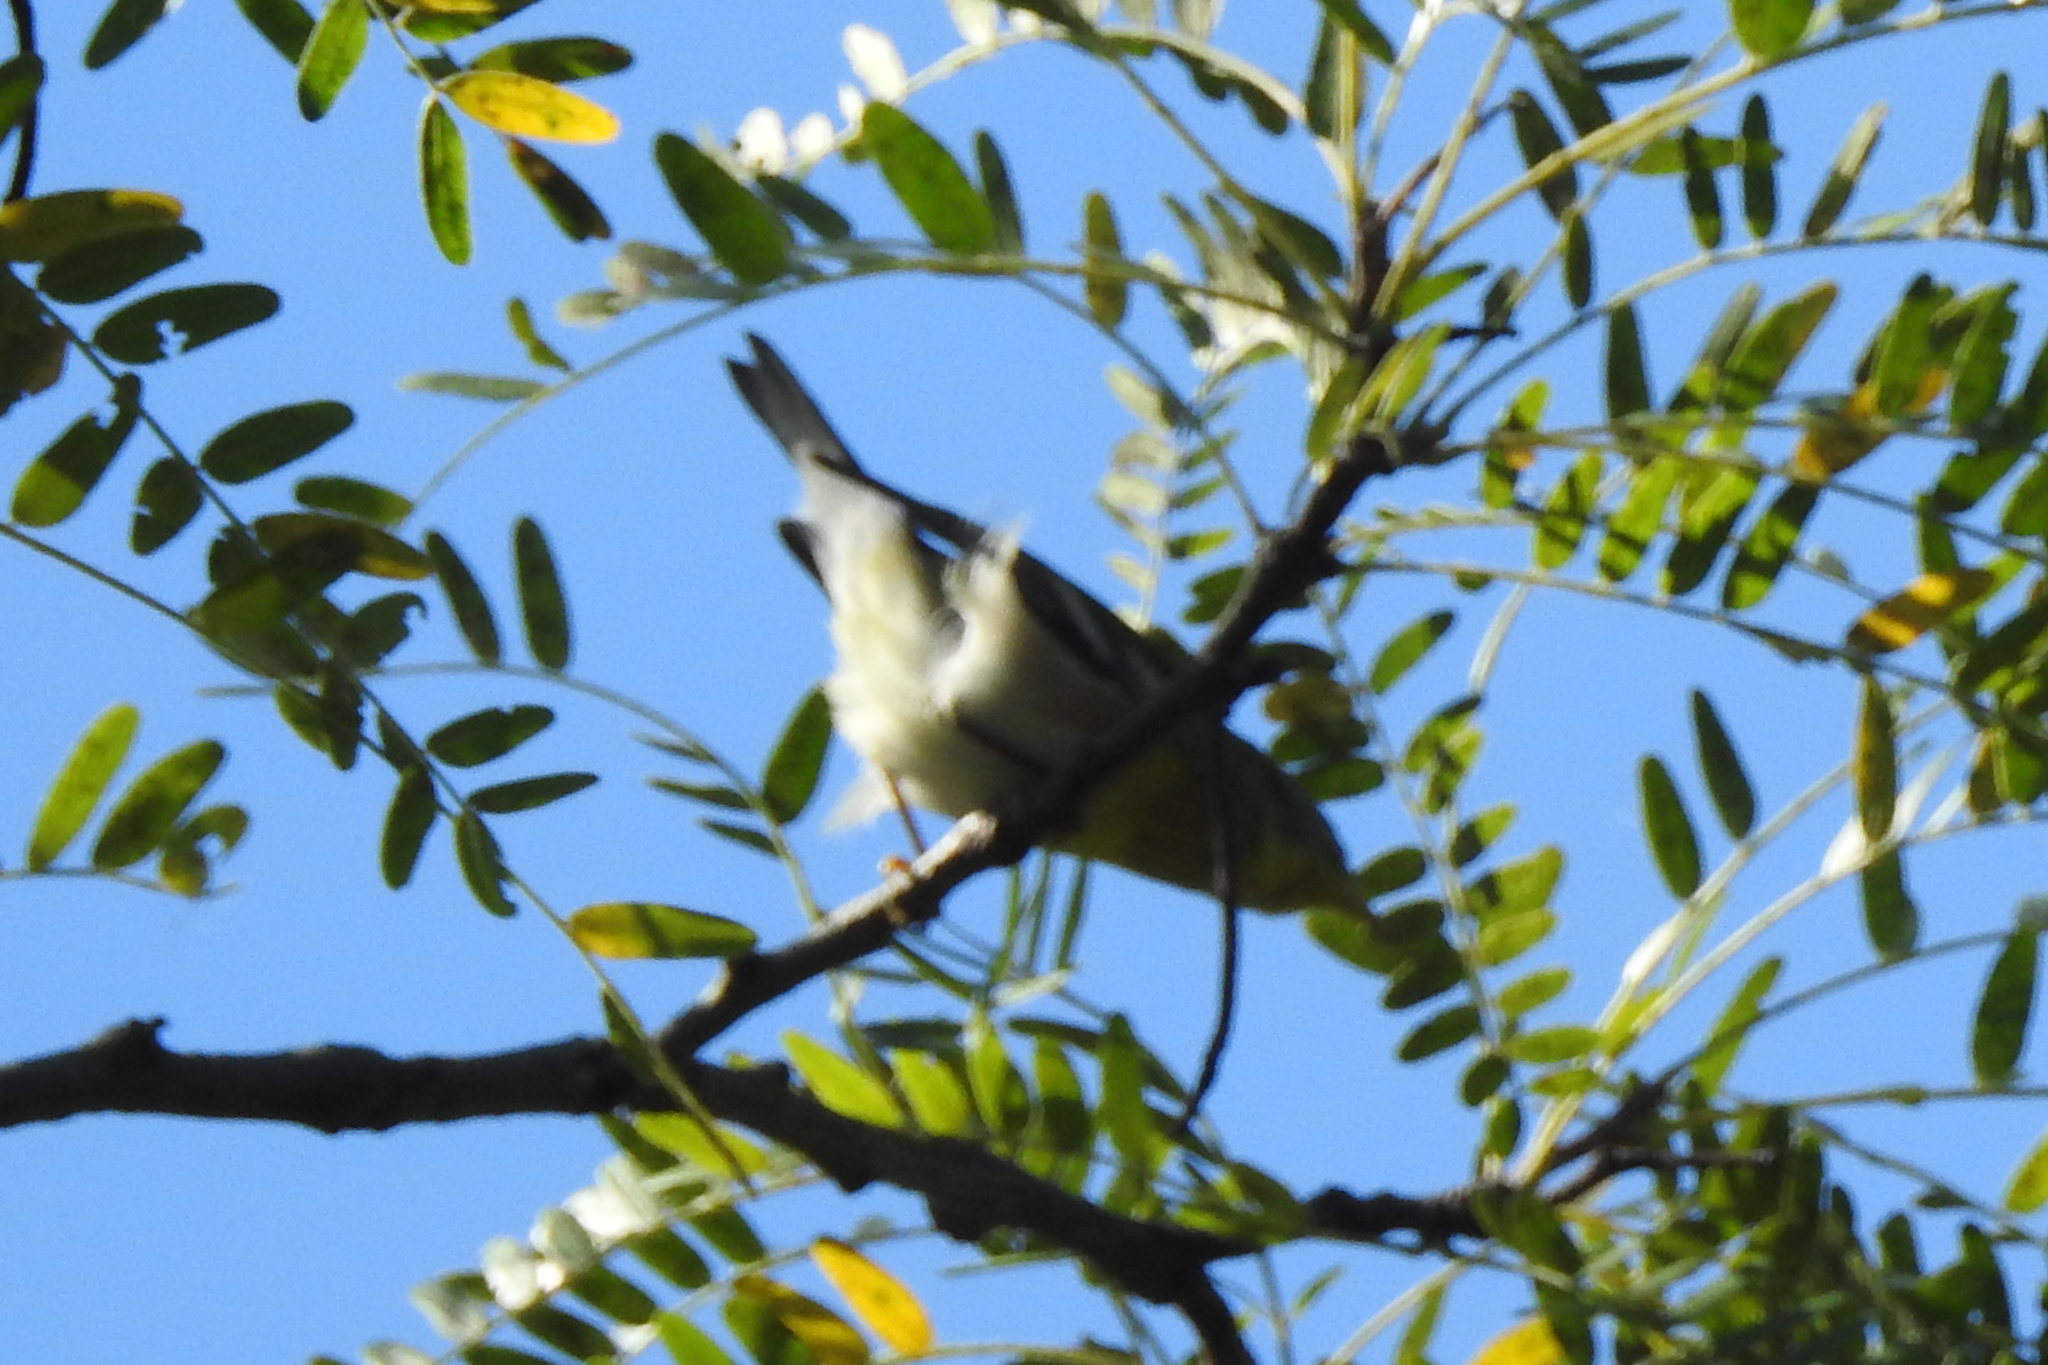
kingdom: Animalia
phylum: Chordata
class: Aves
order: Passeriformes
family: Parulidae
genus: Setophaga
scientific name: Setophaga americana
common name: Northern parula
